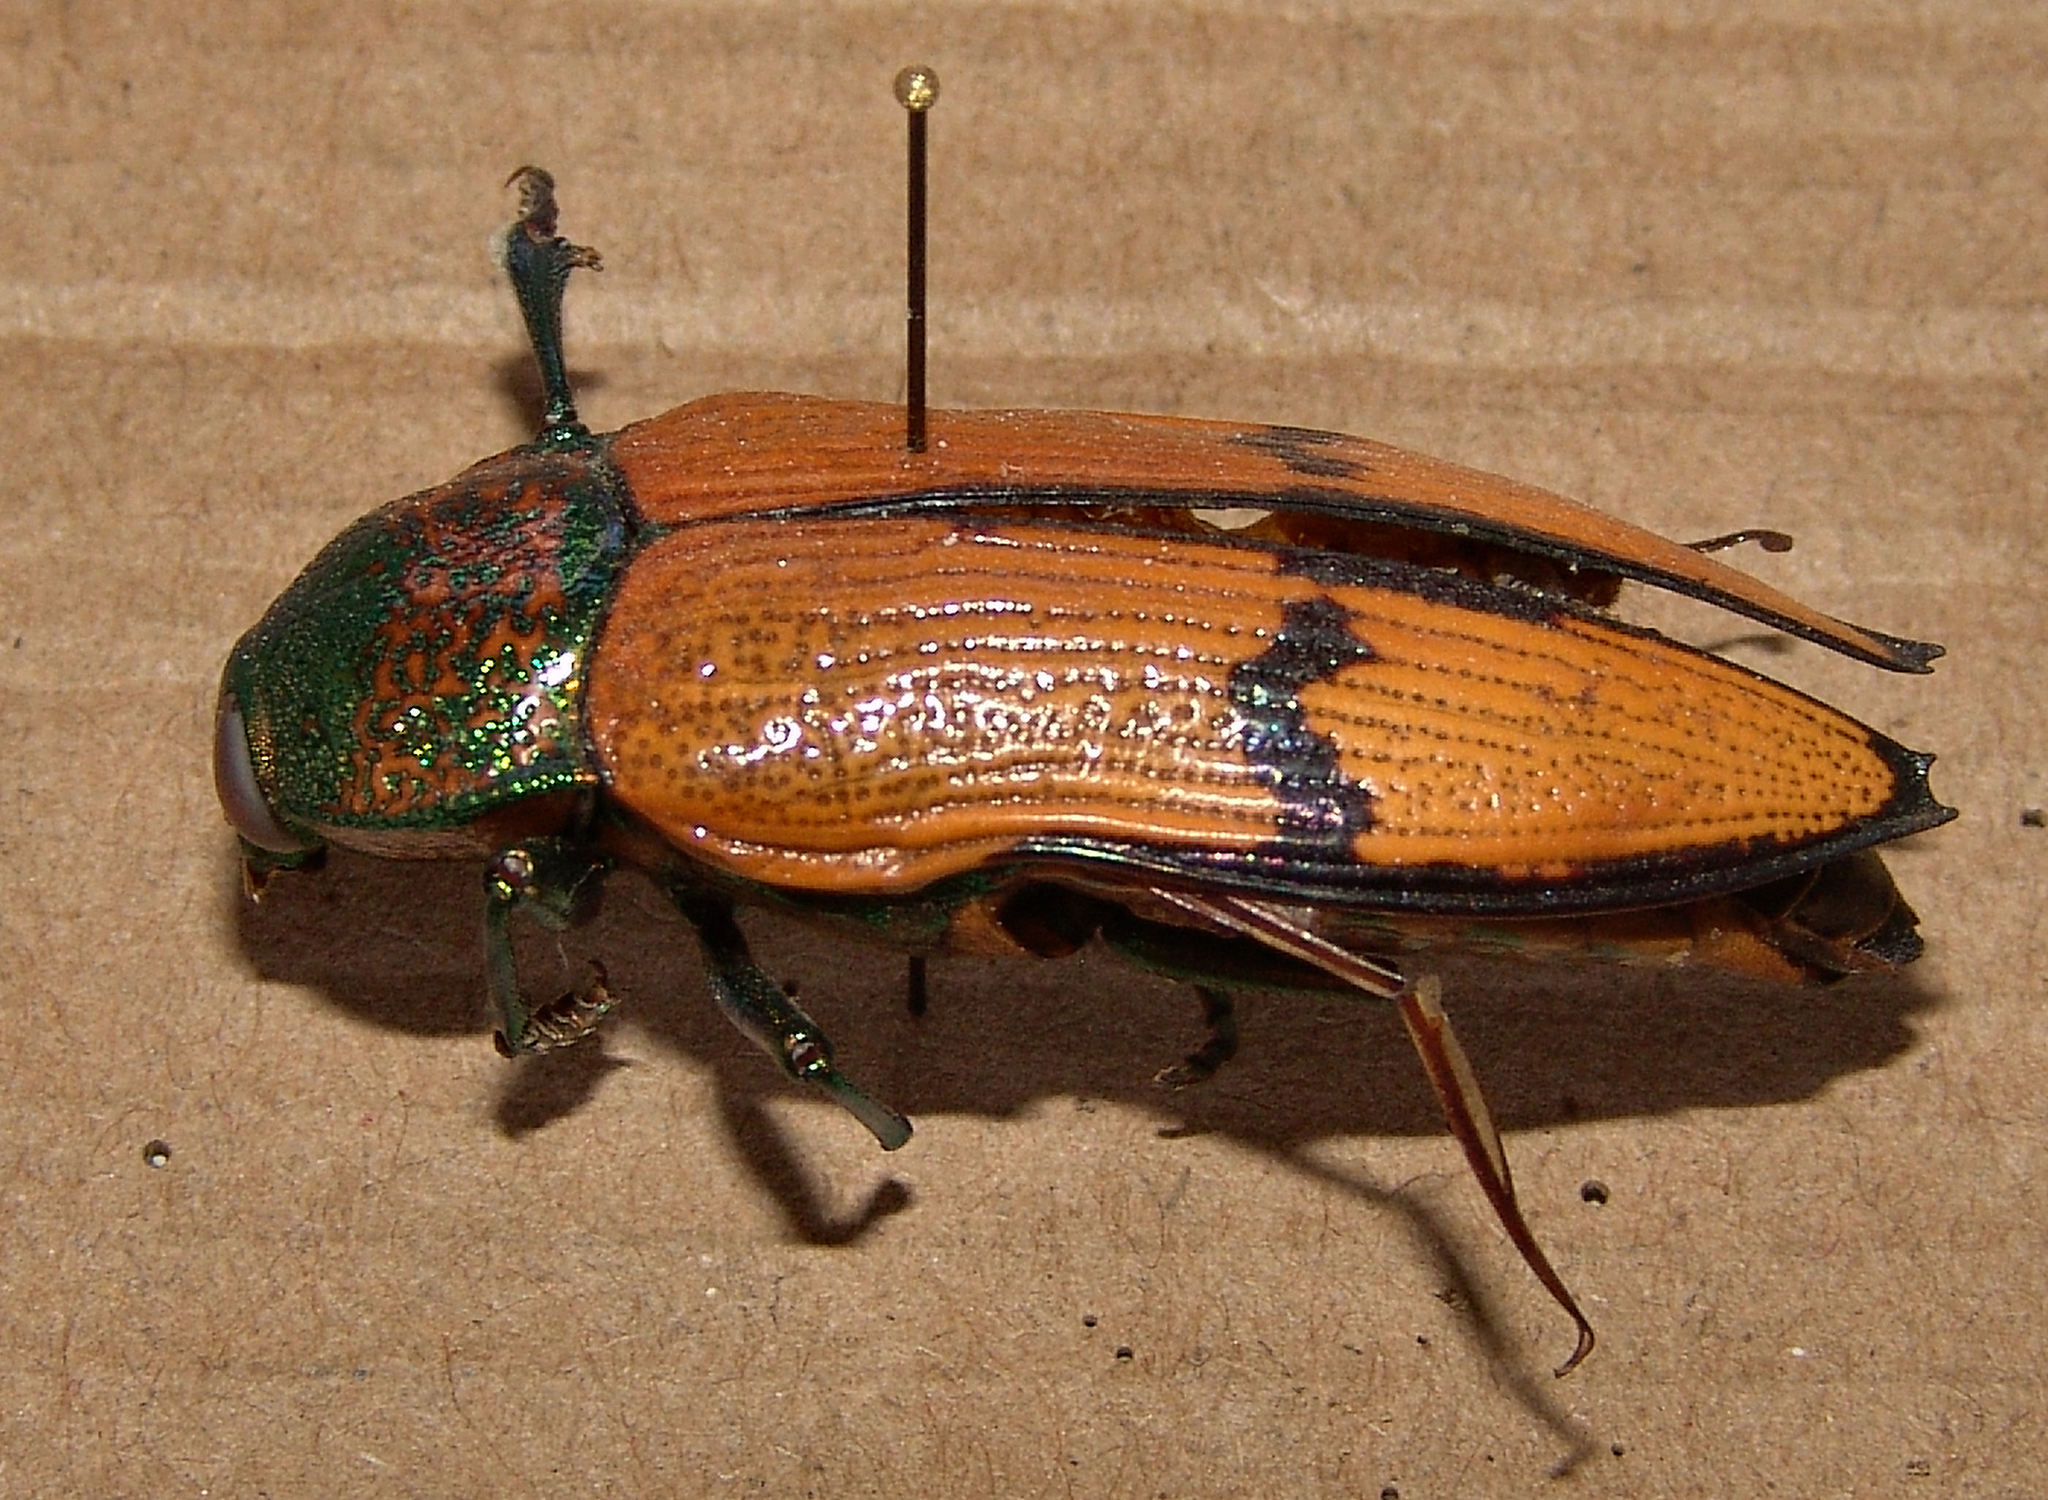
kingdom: Animalia
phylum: Arthropoda
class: Insecta
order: Coleoptera
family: Buprestidae
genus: Temognatha
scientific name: Temognatha chevrolatii
